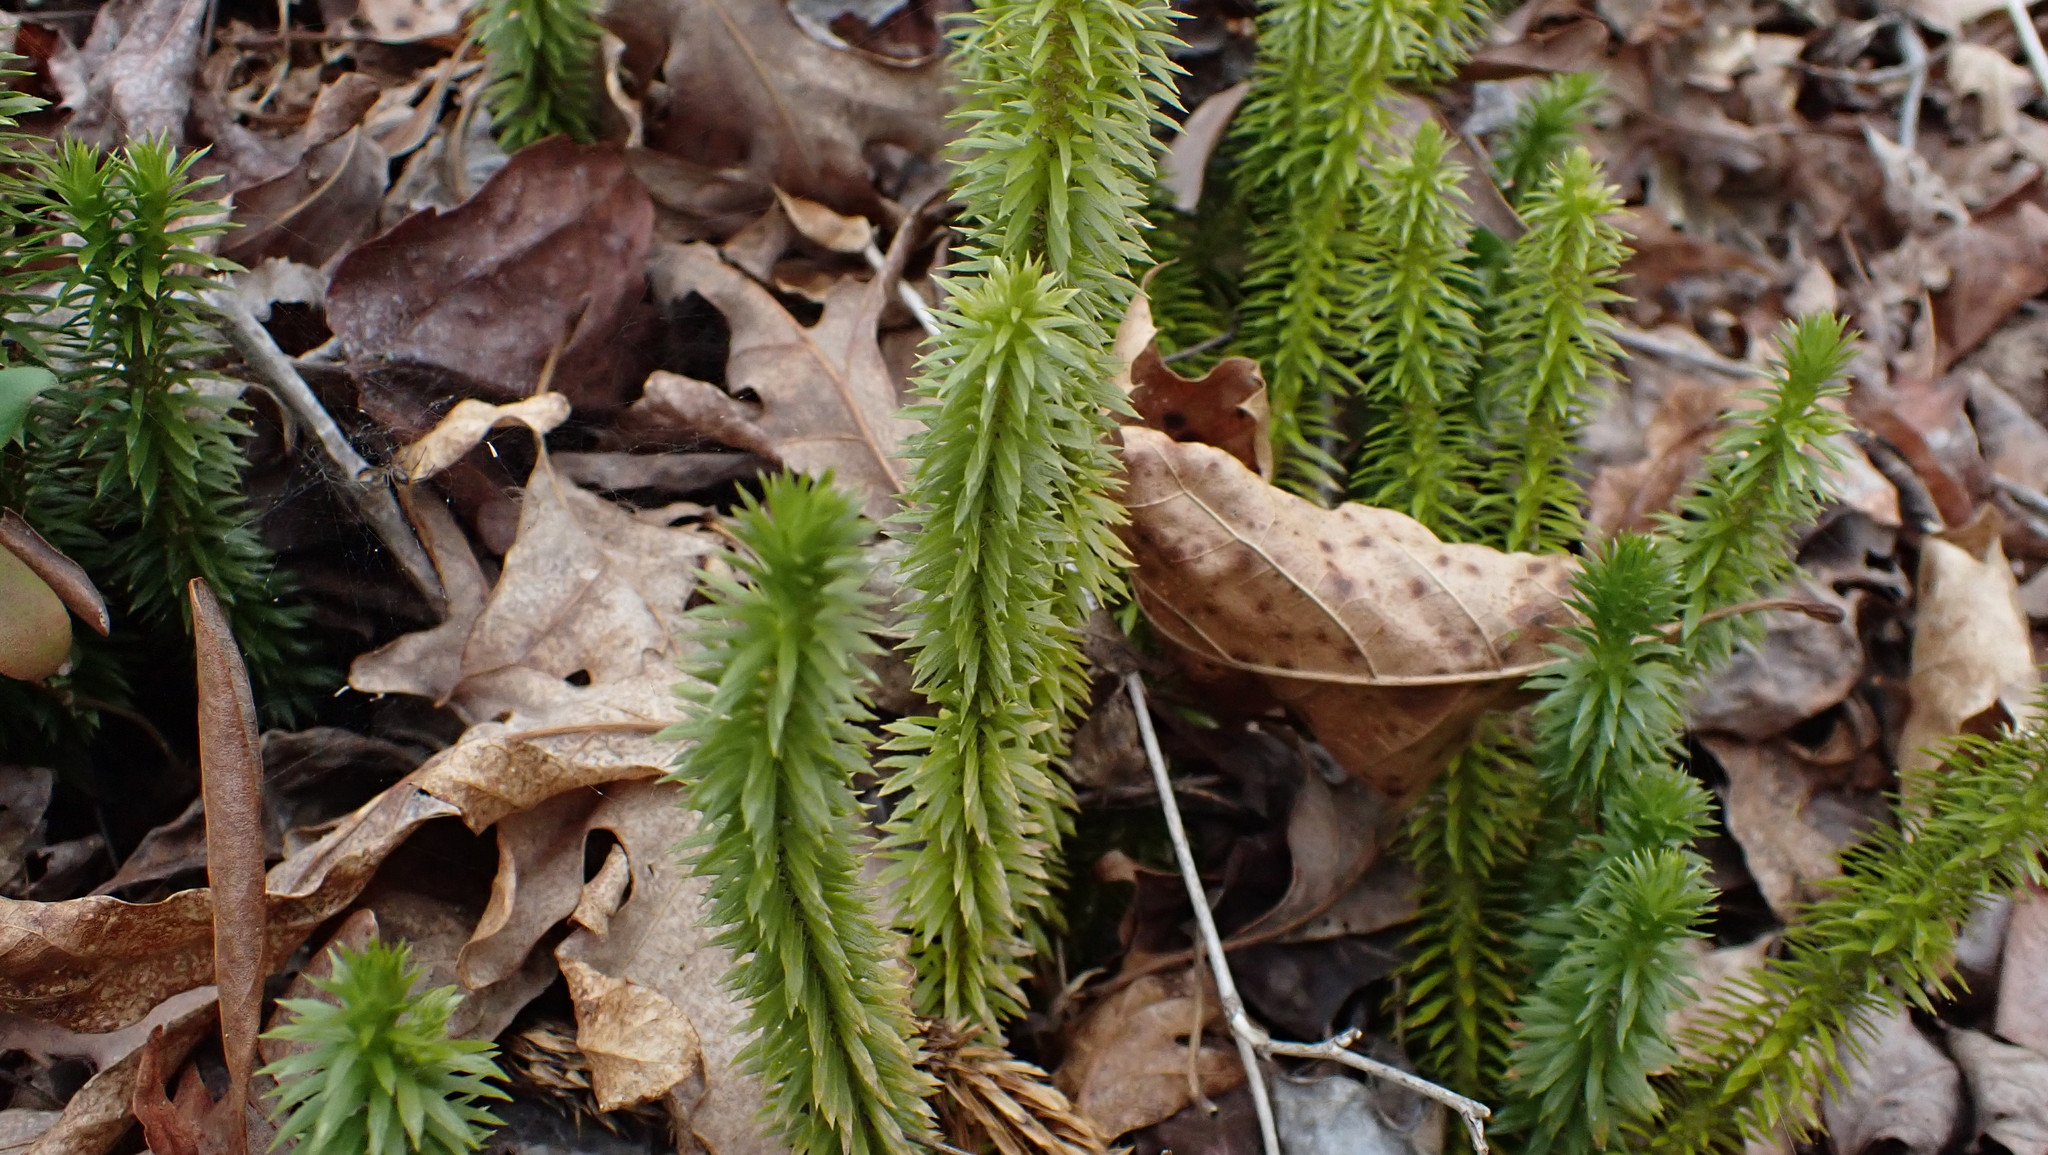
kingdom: Plantae
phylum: Tracheophyta
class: Lycopodiopsida
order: Lycopodiales
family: Lycopodiaceae
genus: Huperzia
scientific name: Huperzia lucidula
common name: Shining clubmoss
